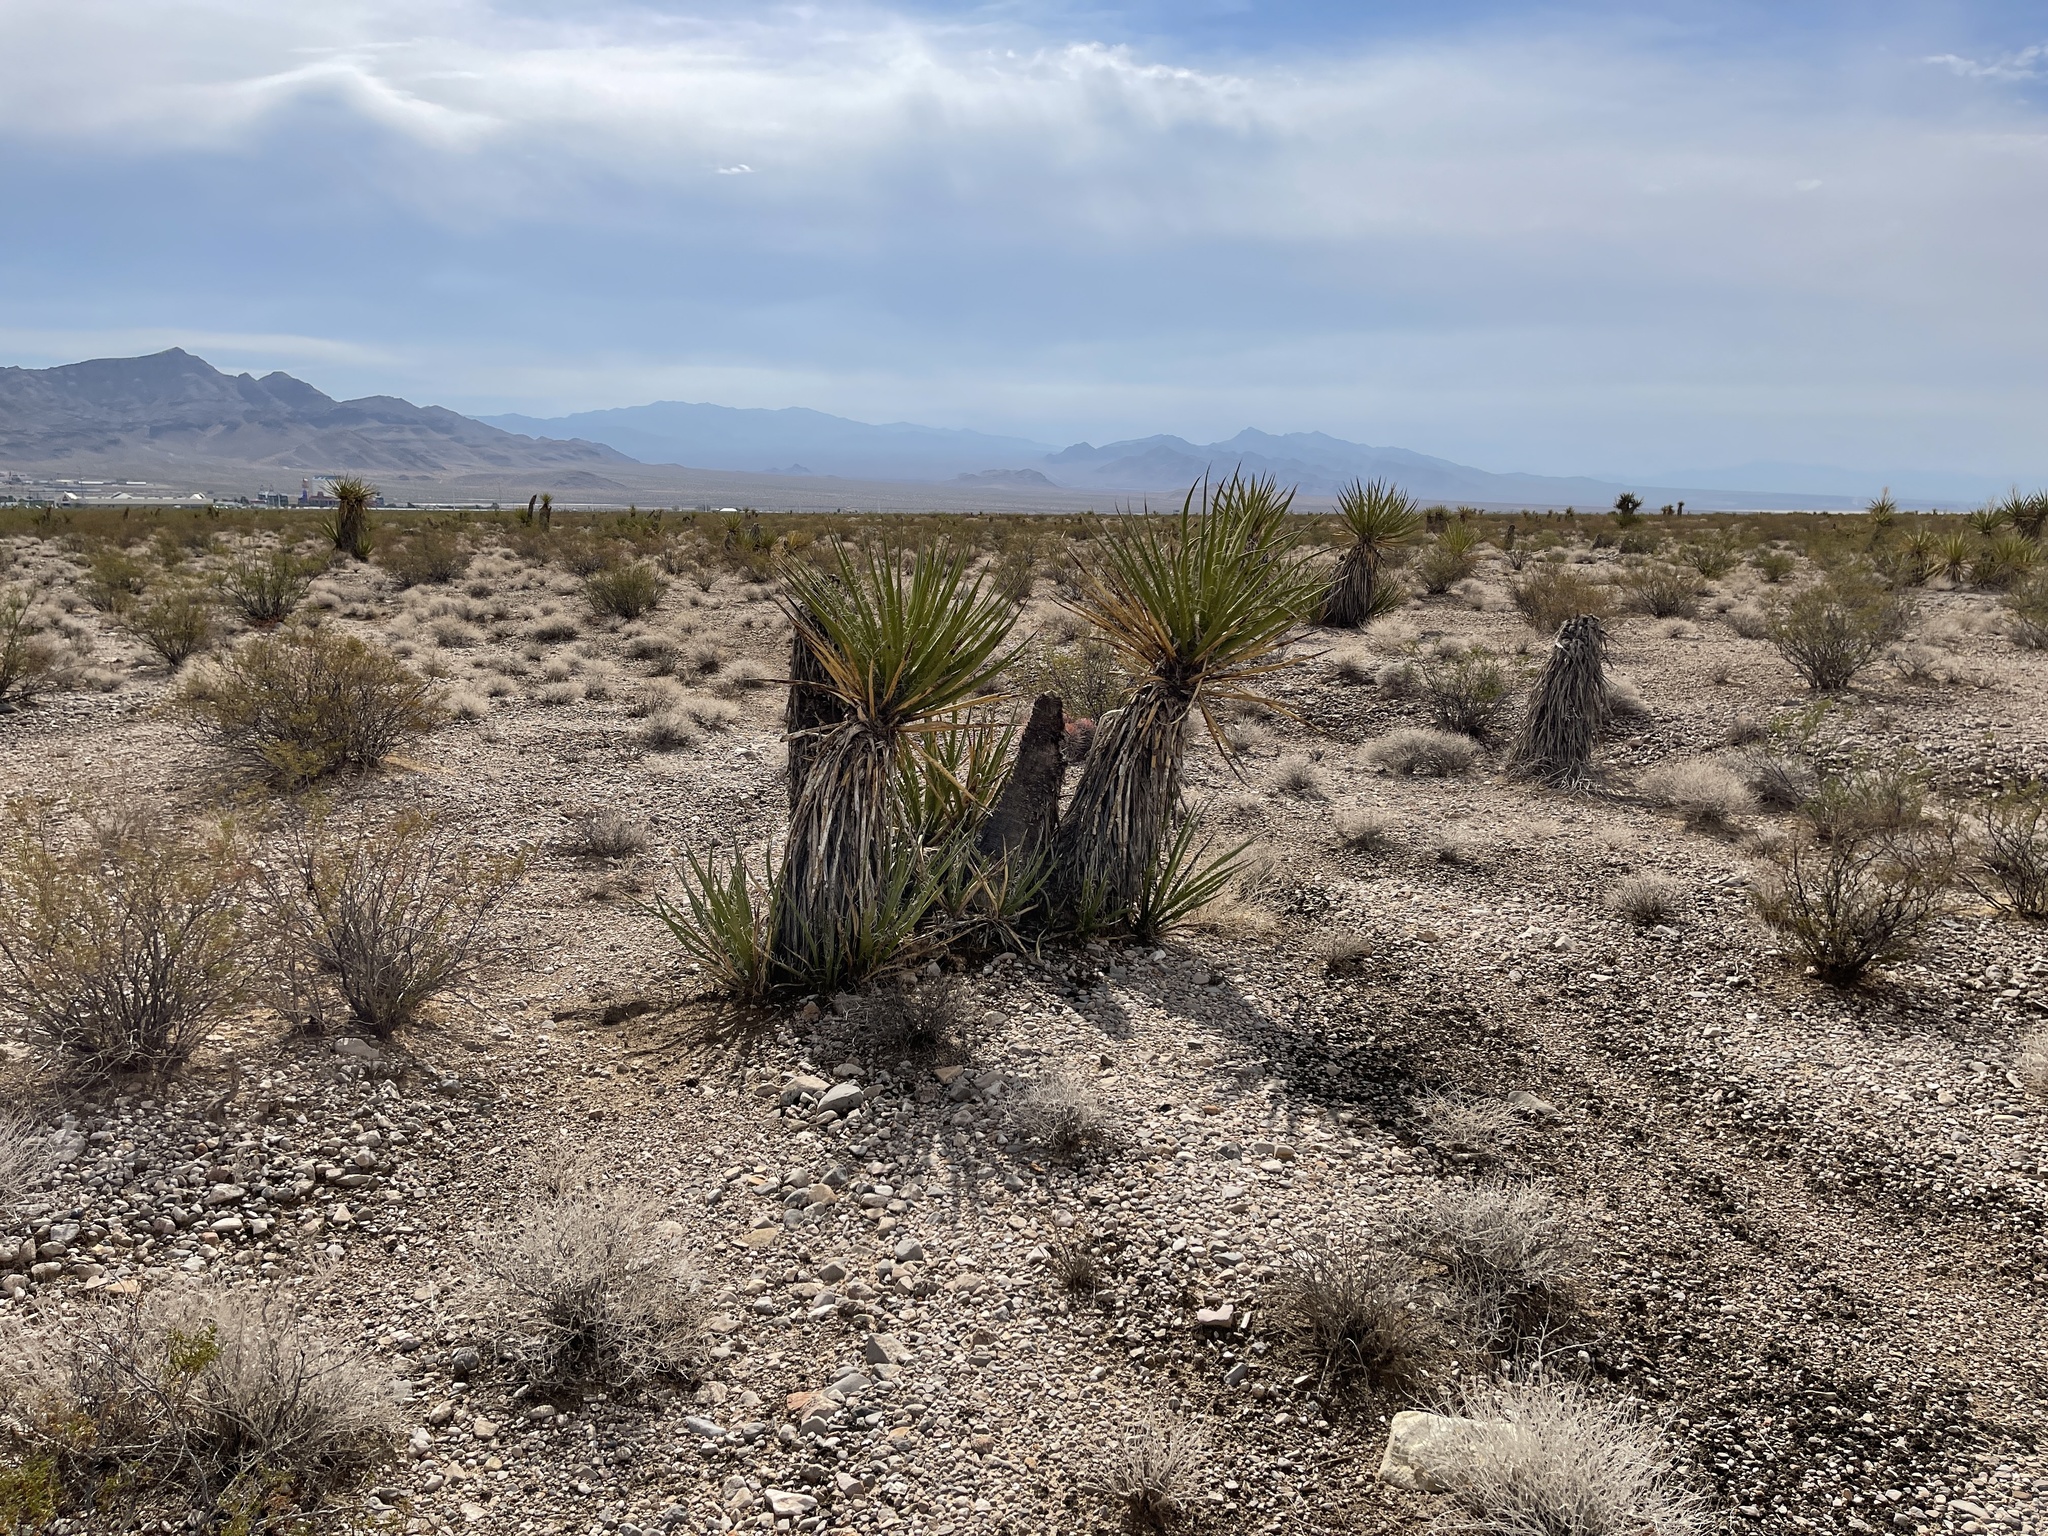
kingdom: Plantae
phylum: Tracheophyta
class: Liliopsida
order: Asparagales
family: Asparagaceae
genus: Yucca
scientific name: Yucca schidigera
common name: Mojave yucca
